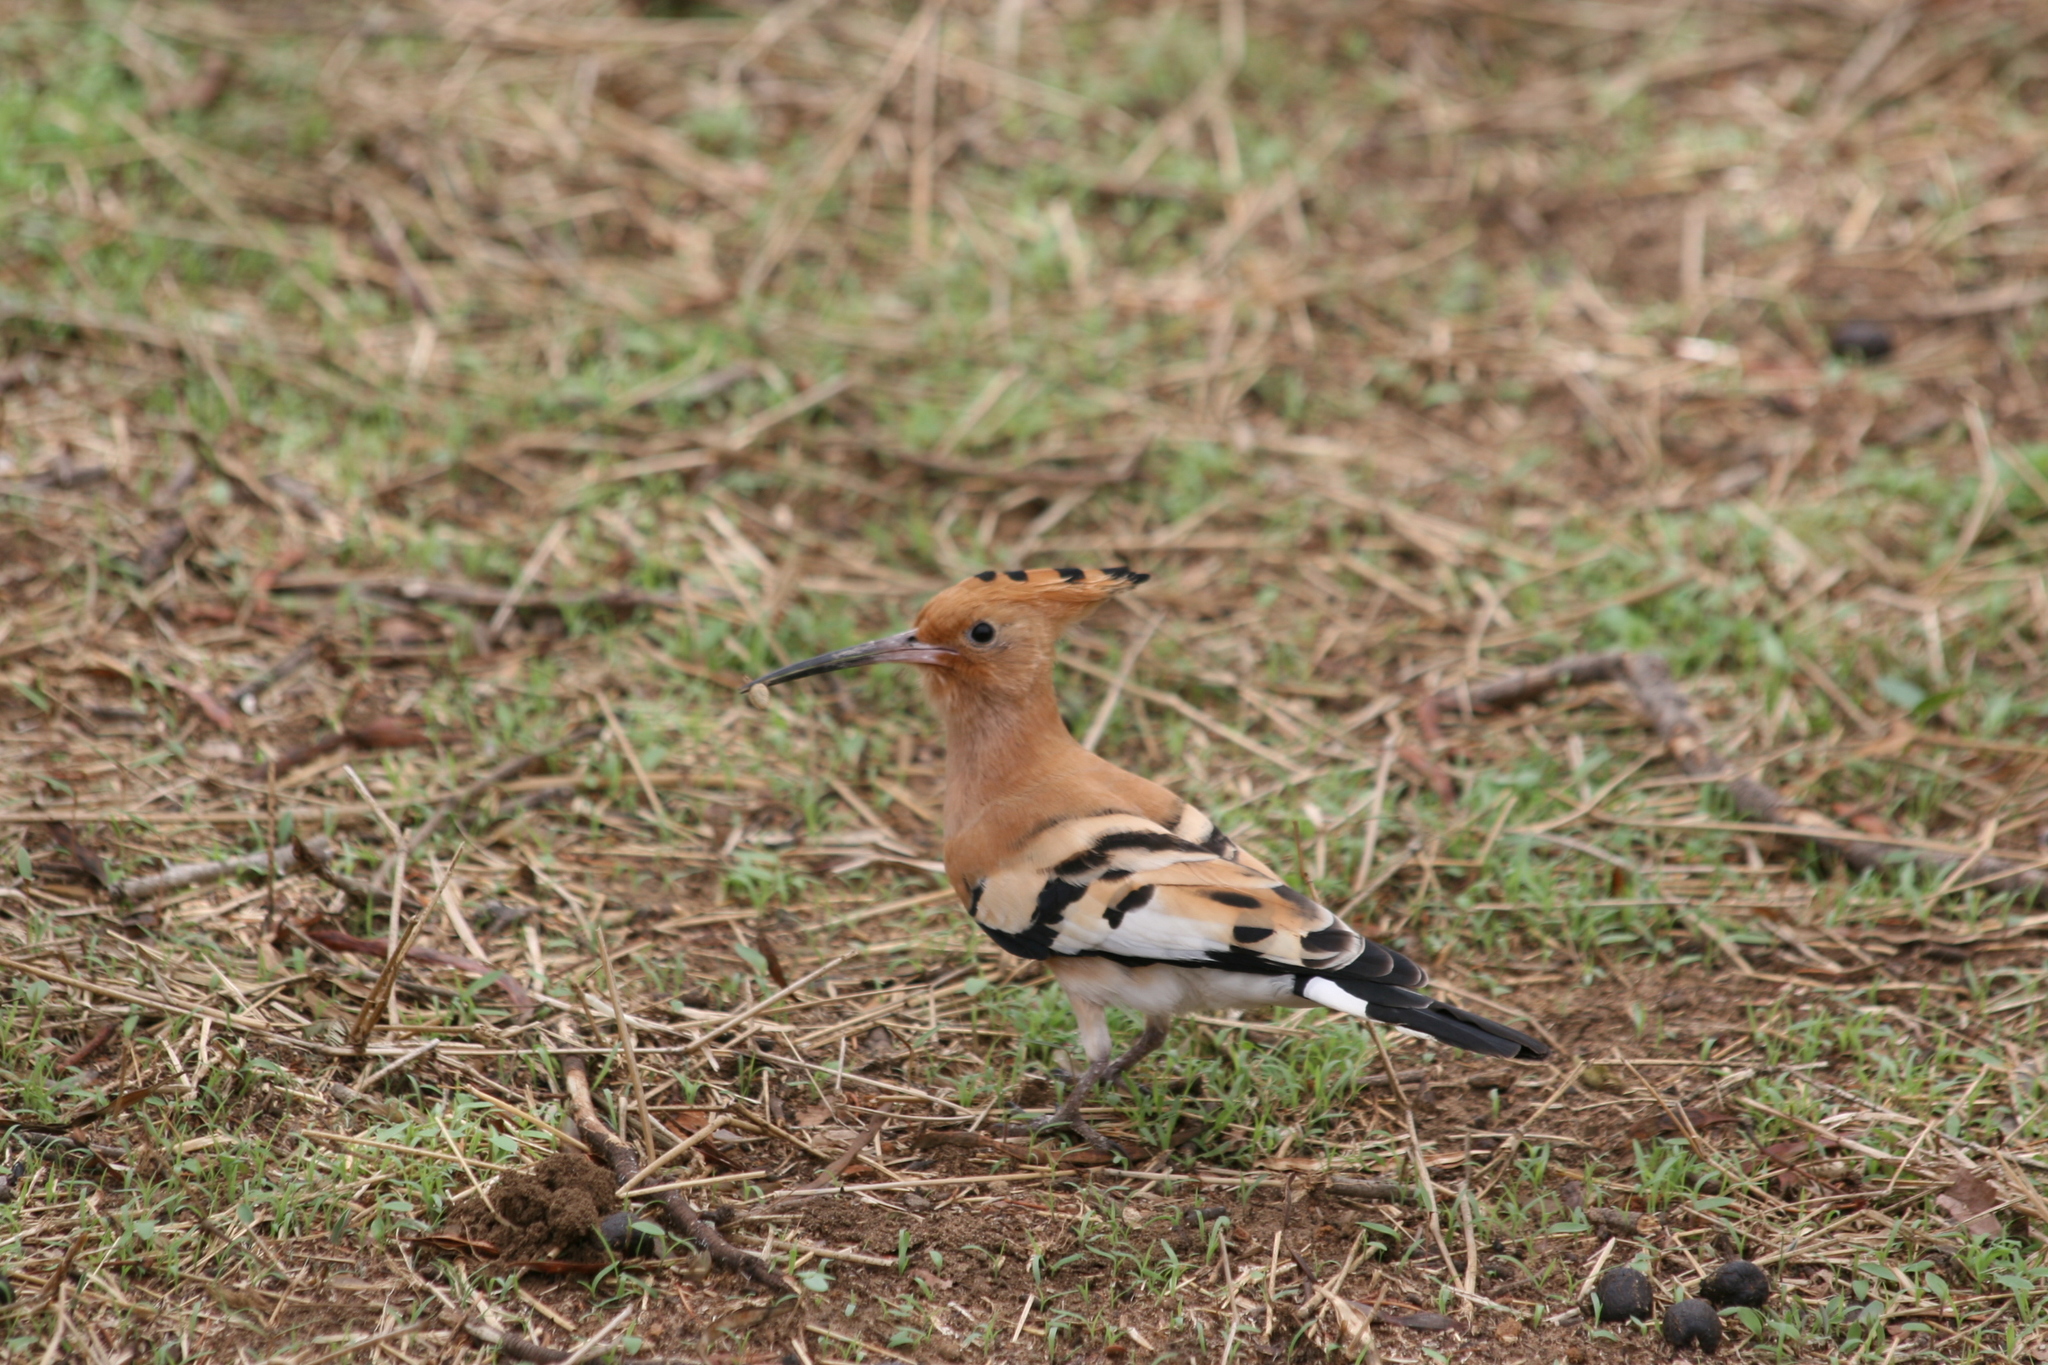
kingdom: Animalia
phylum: Chordata
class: Aves
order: Bucerotiformes
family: Upupidae
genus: Upupa
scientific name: Upupa epops
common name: Eurasian hoopoe
